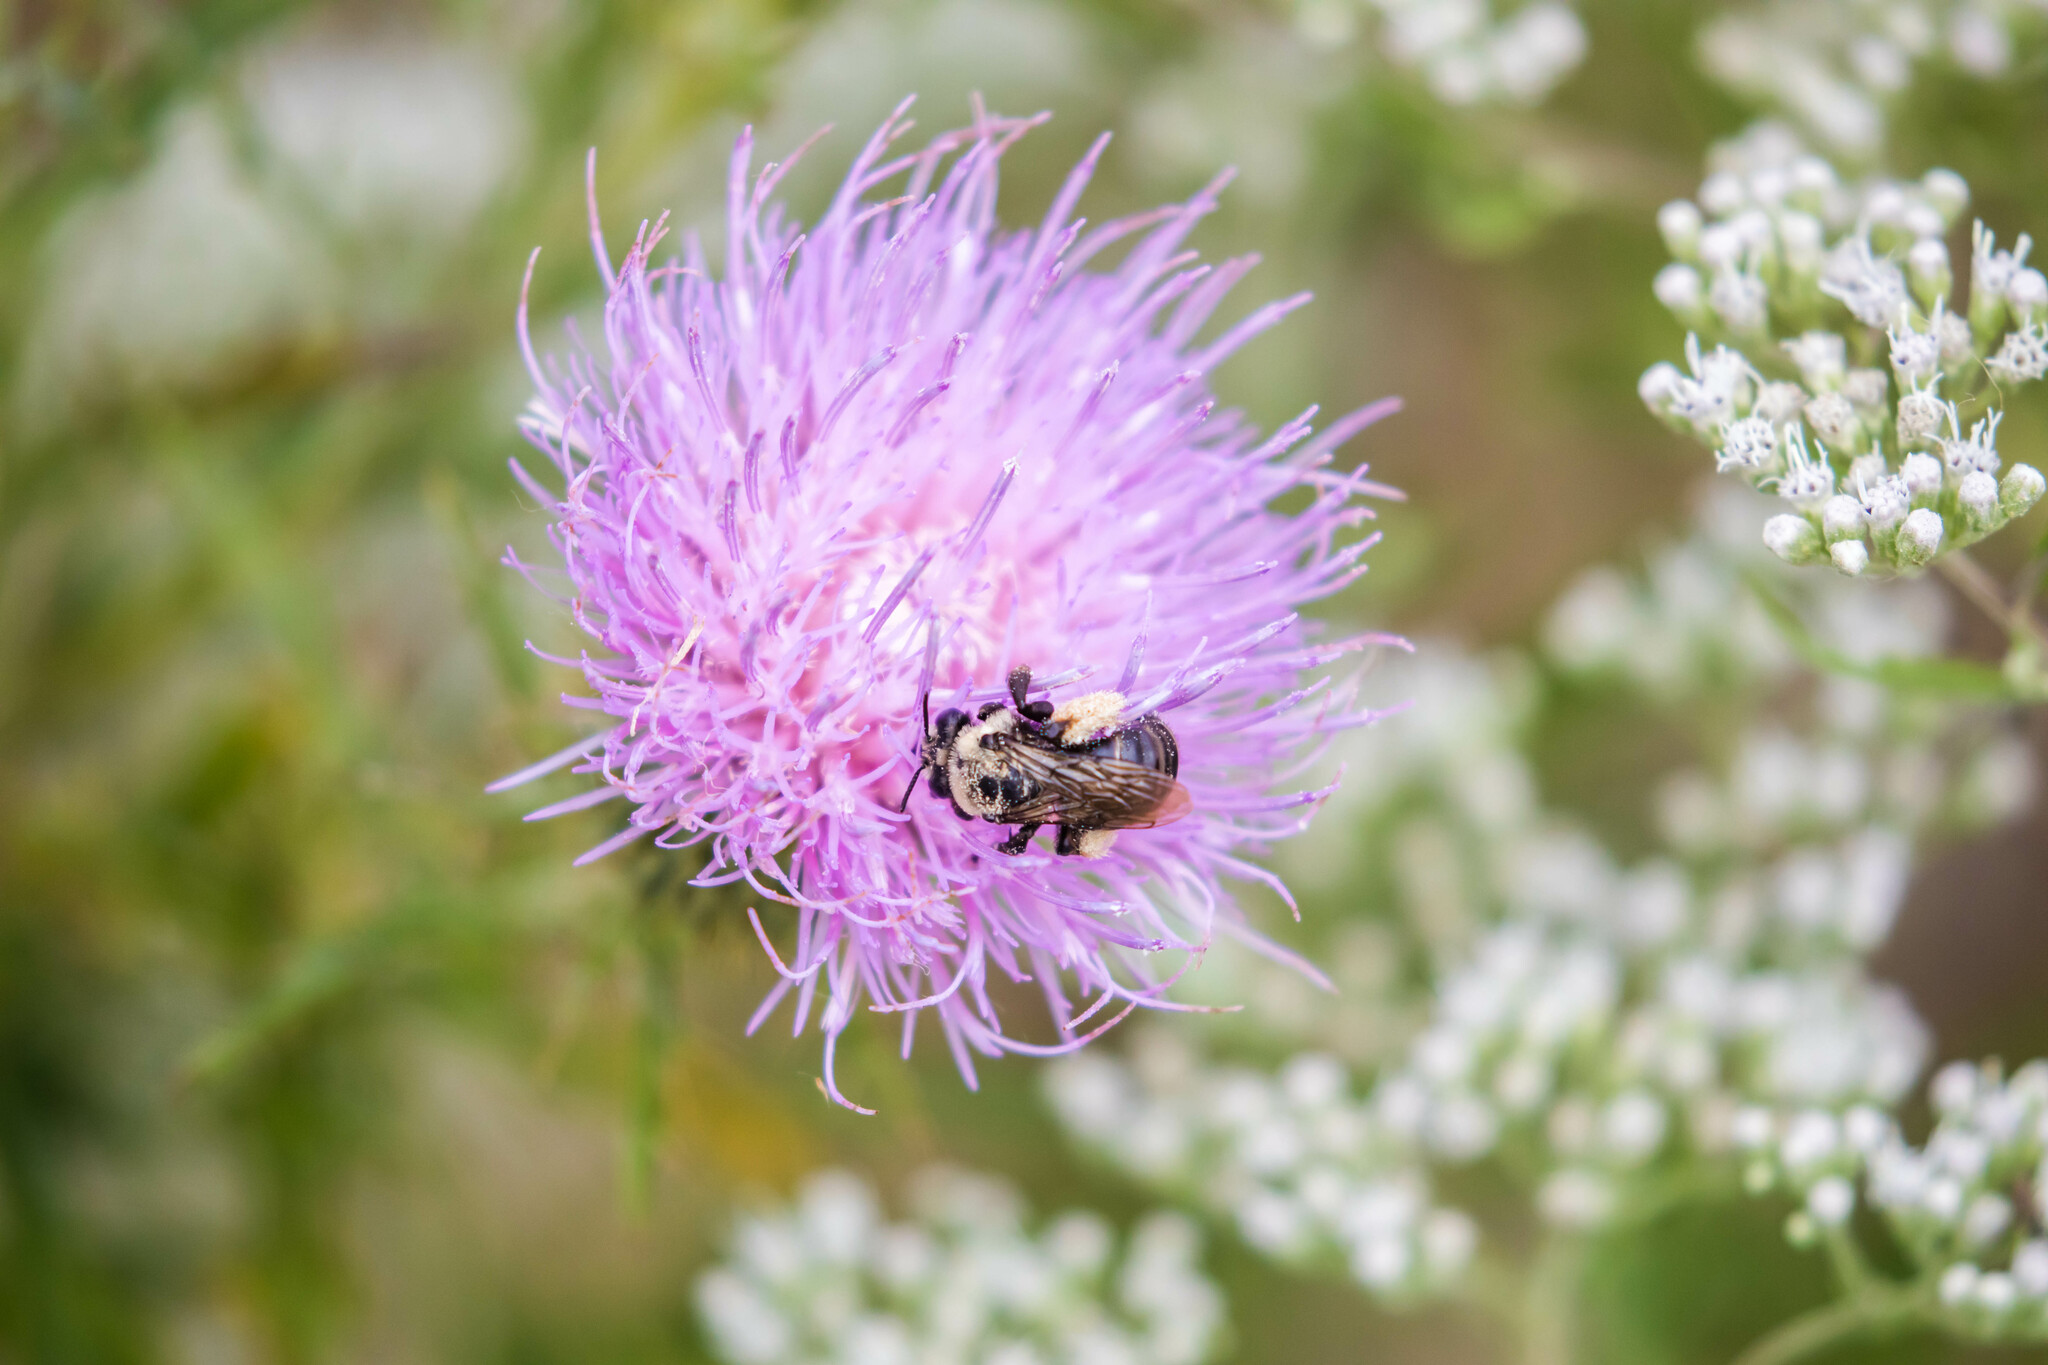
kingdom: Animalia
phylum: Arthropoda
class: Insecta
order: Hymenoptera
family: Apidae
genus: Melissodes
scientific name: Melissodes desponsus
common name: Thistle long-horned bee
